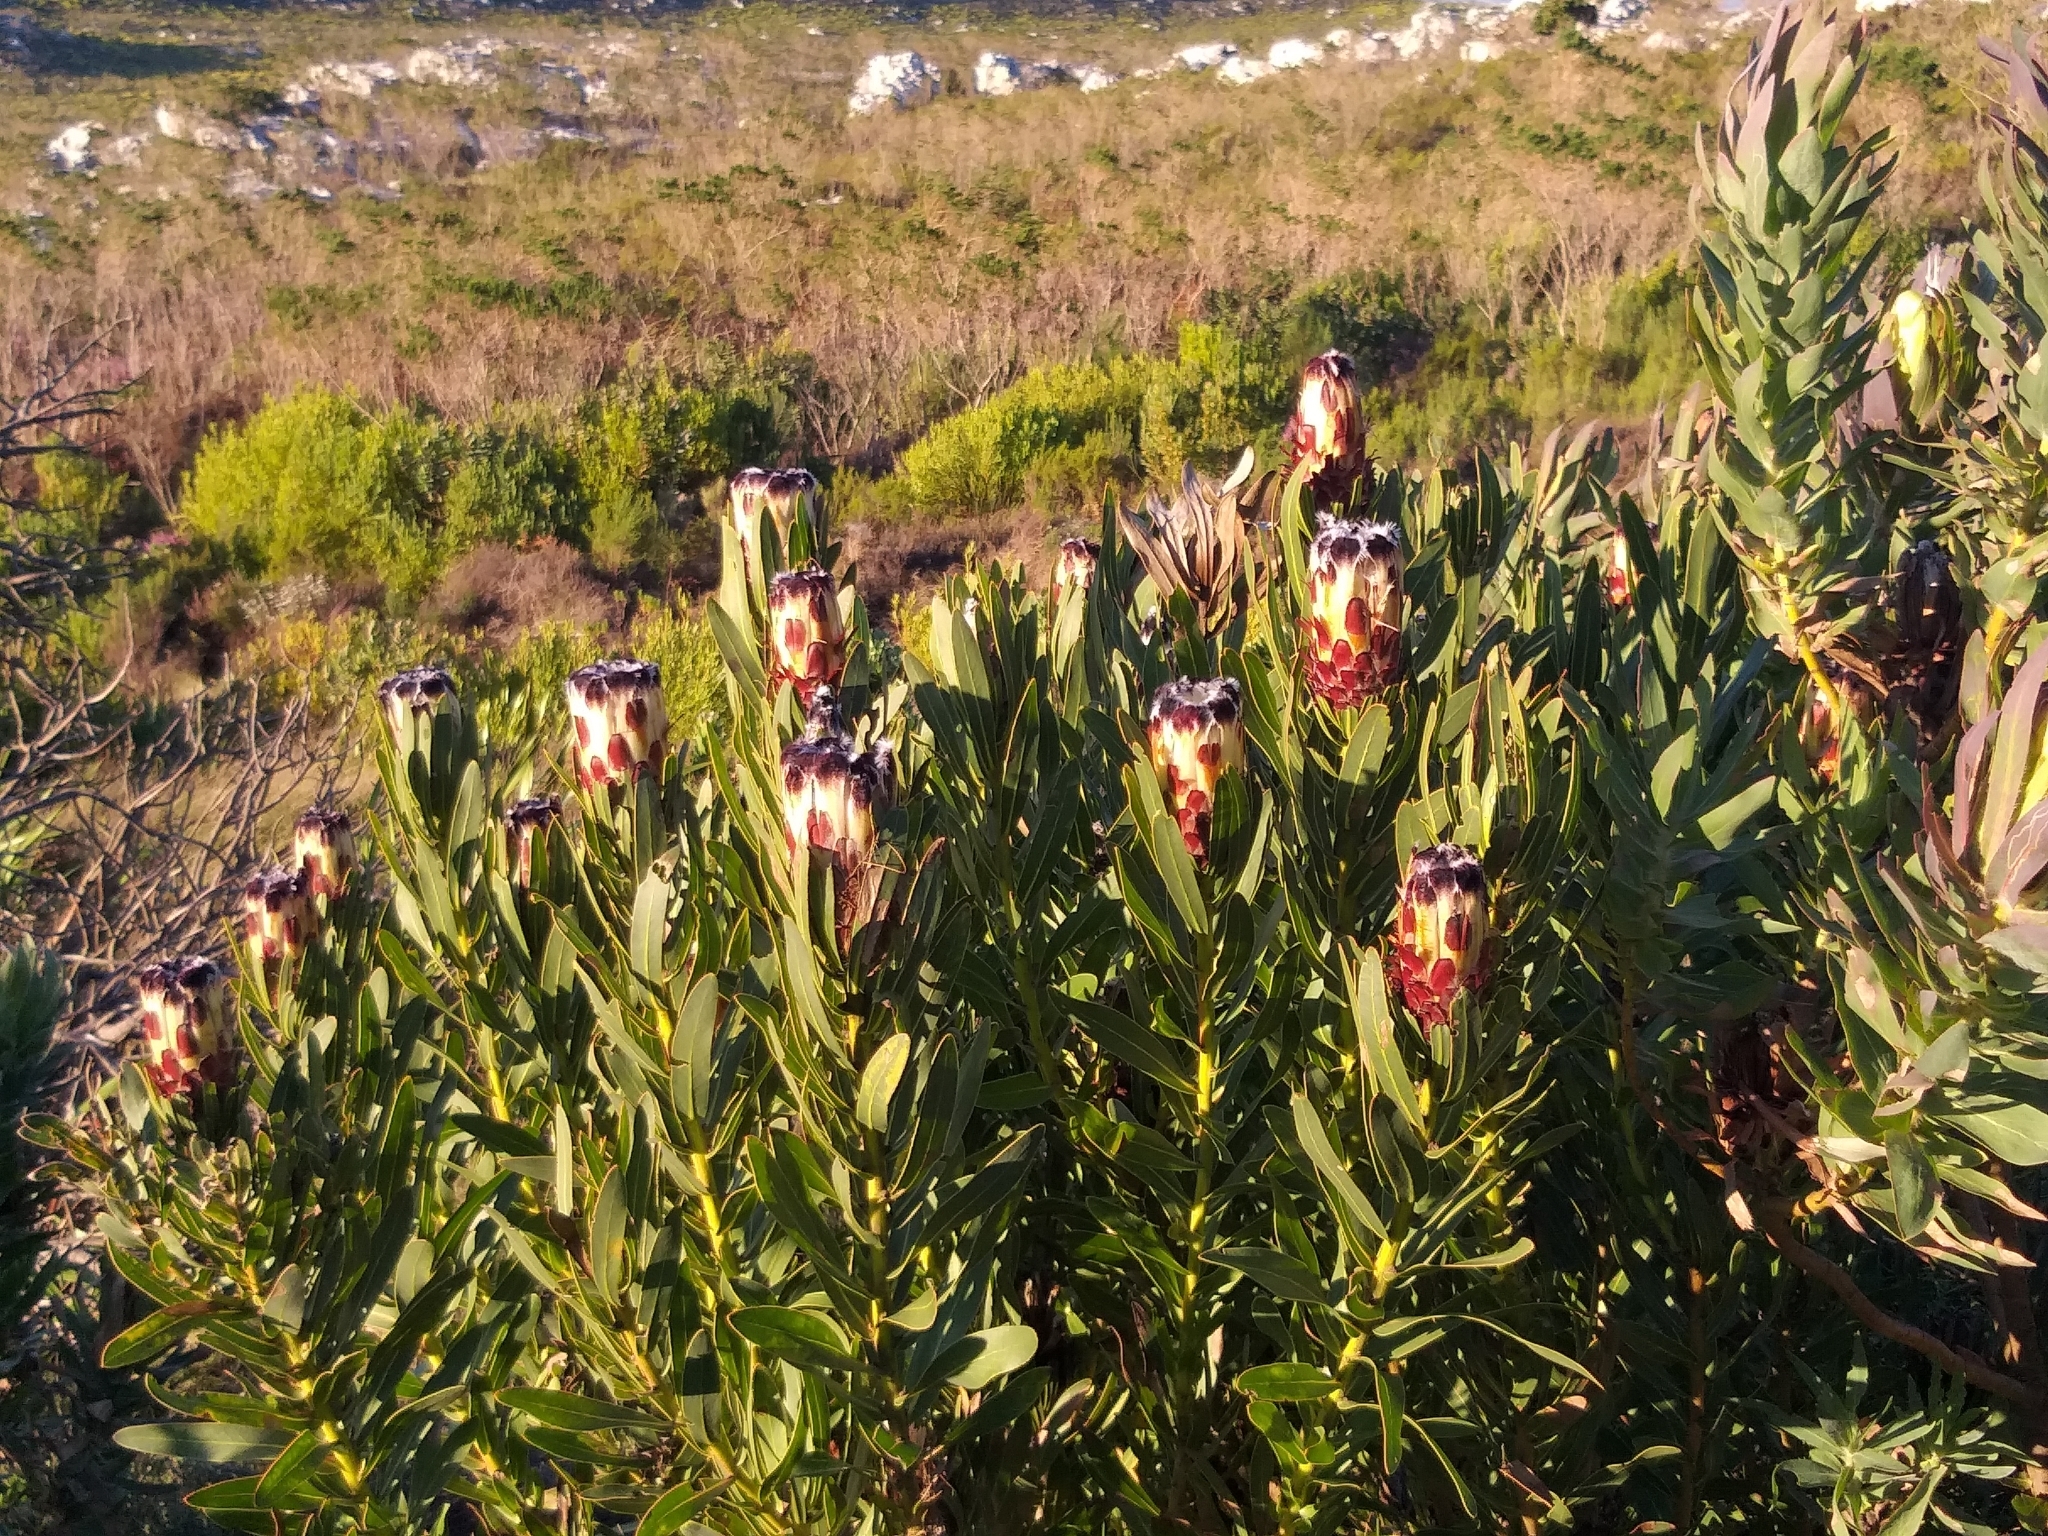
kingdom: Plantae
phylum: Tracheophyta
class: Magnoliopsida
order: Proteales
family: Proteaceae
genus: Protea
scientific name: Protea lepidocarpodendron
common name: Black-bearded protea
